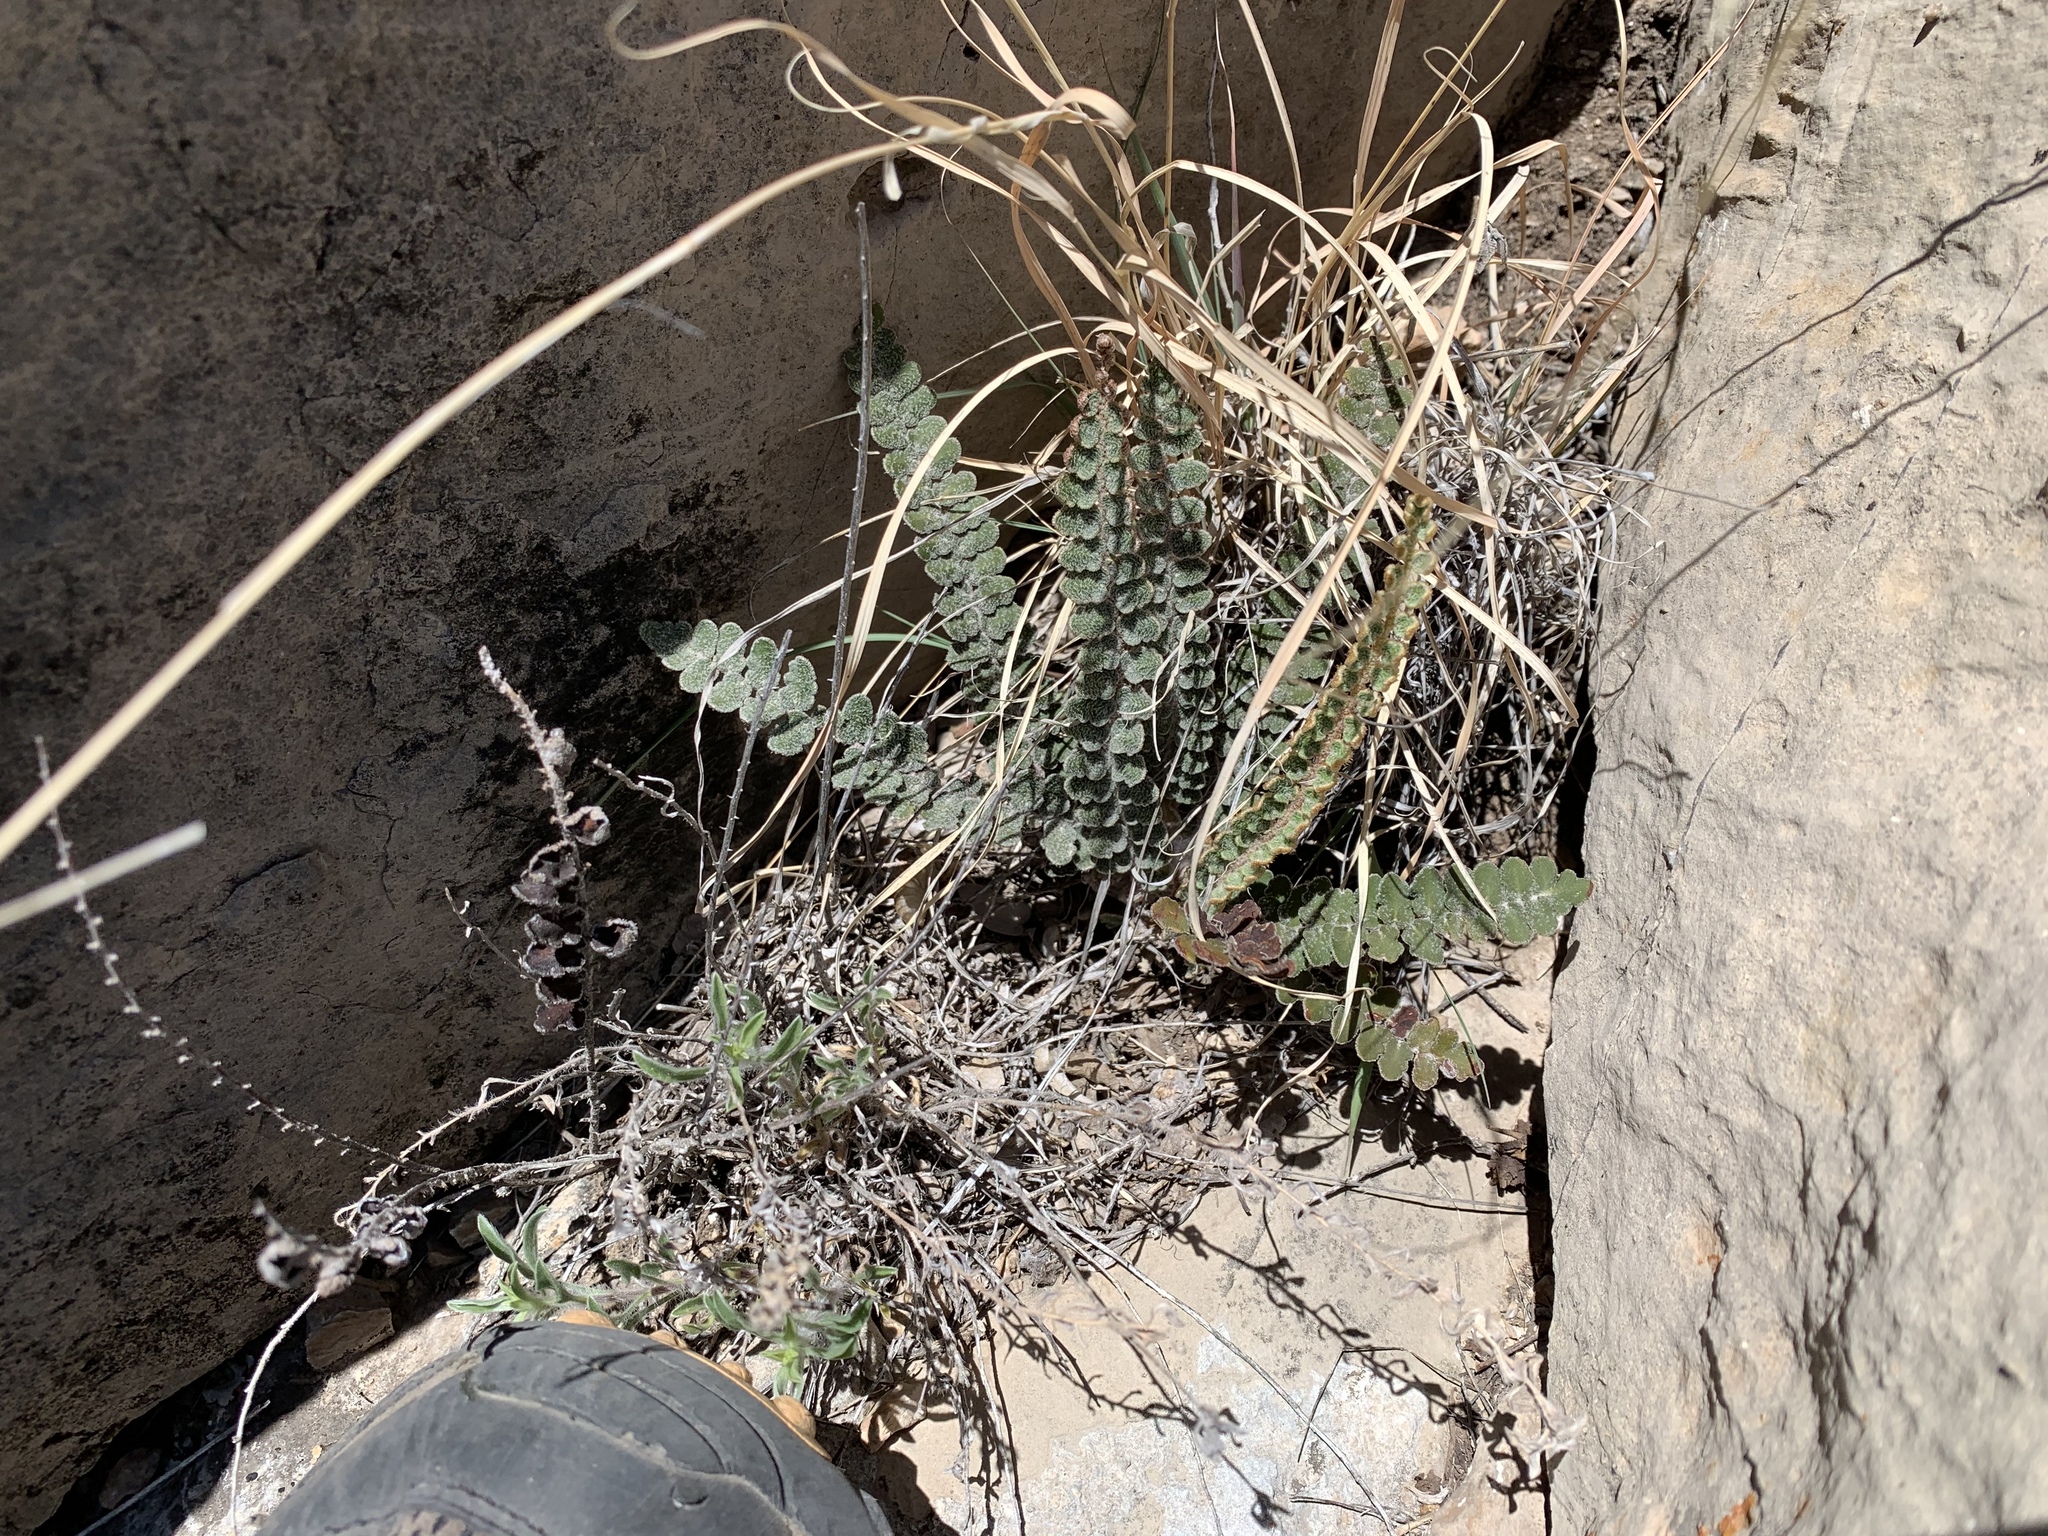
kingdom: Plantae
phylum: Tracheophyta
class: Polypodiopsida
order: Polypodiales
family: Pteridaceae
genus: Astrolepis
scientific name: Astrolepis integerrima
